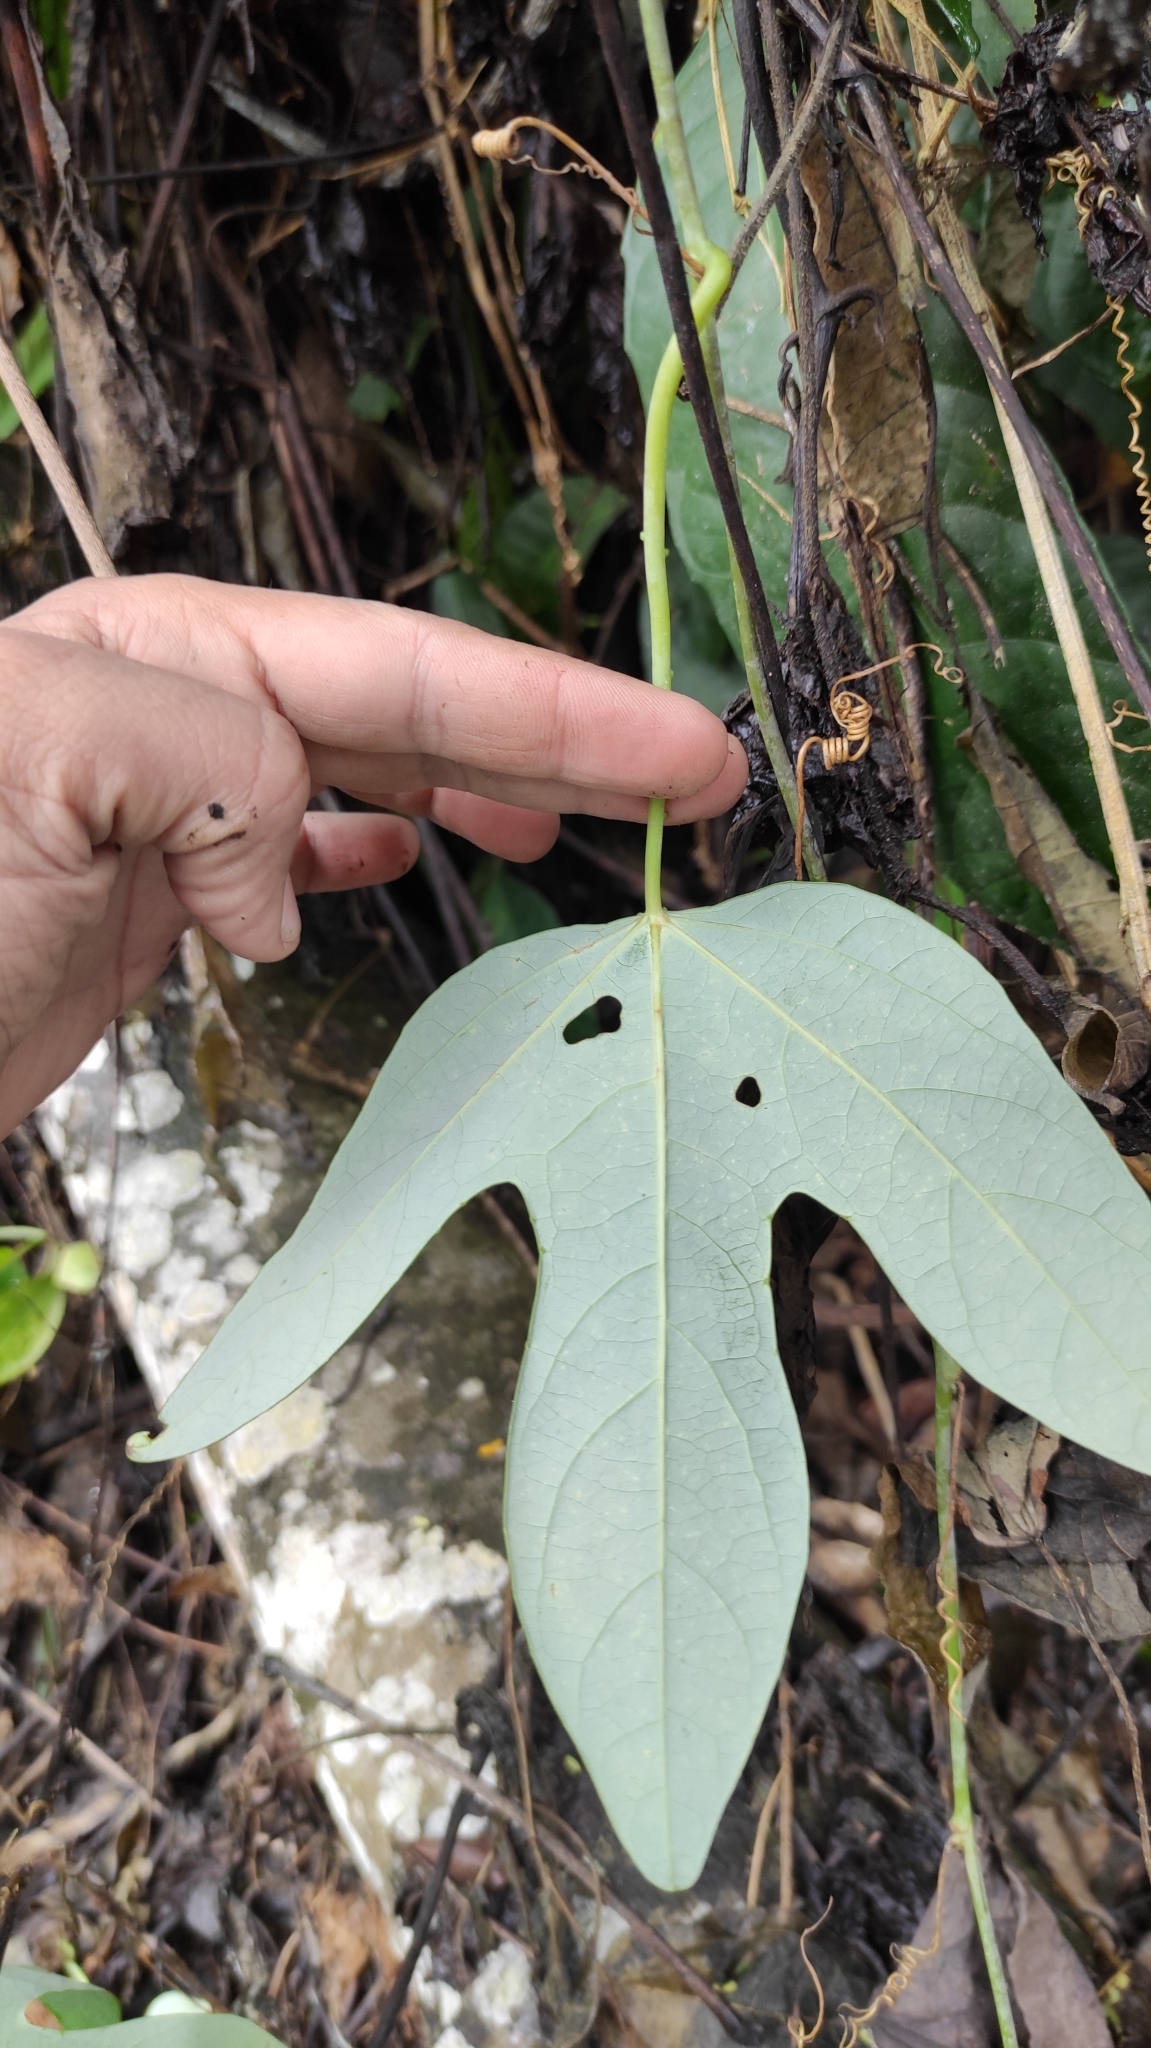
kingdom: Plantae
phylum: Tracheophyta
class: Magnoliopsida
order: Malpighiales
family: Passifloraceae
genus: Passiflora
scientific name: Passiflora smithii
